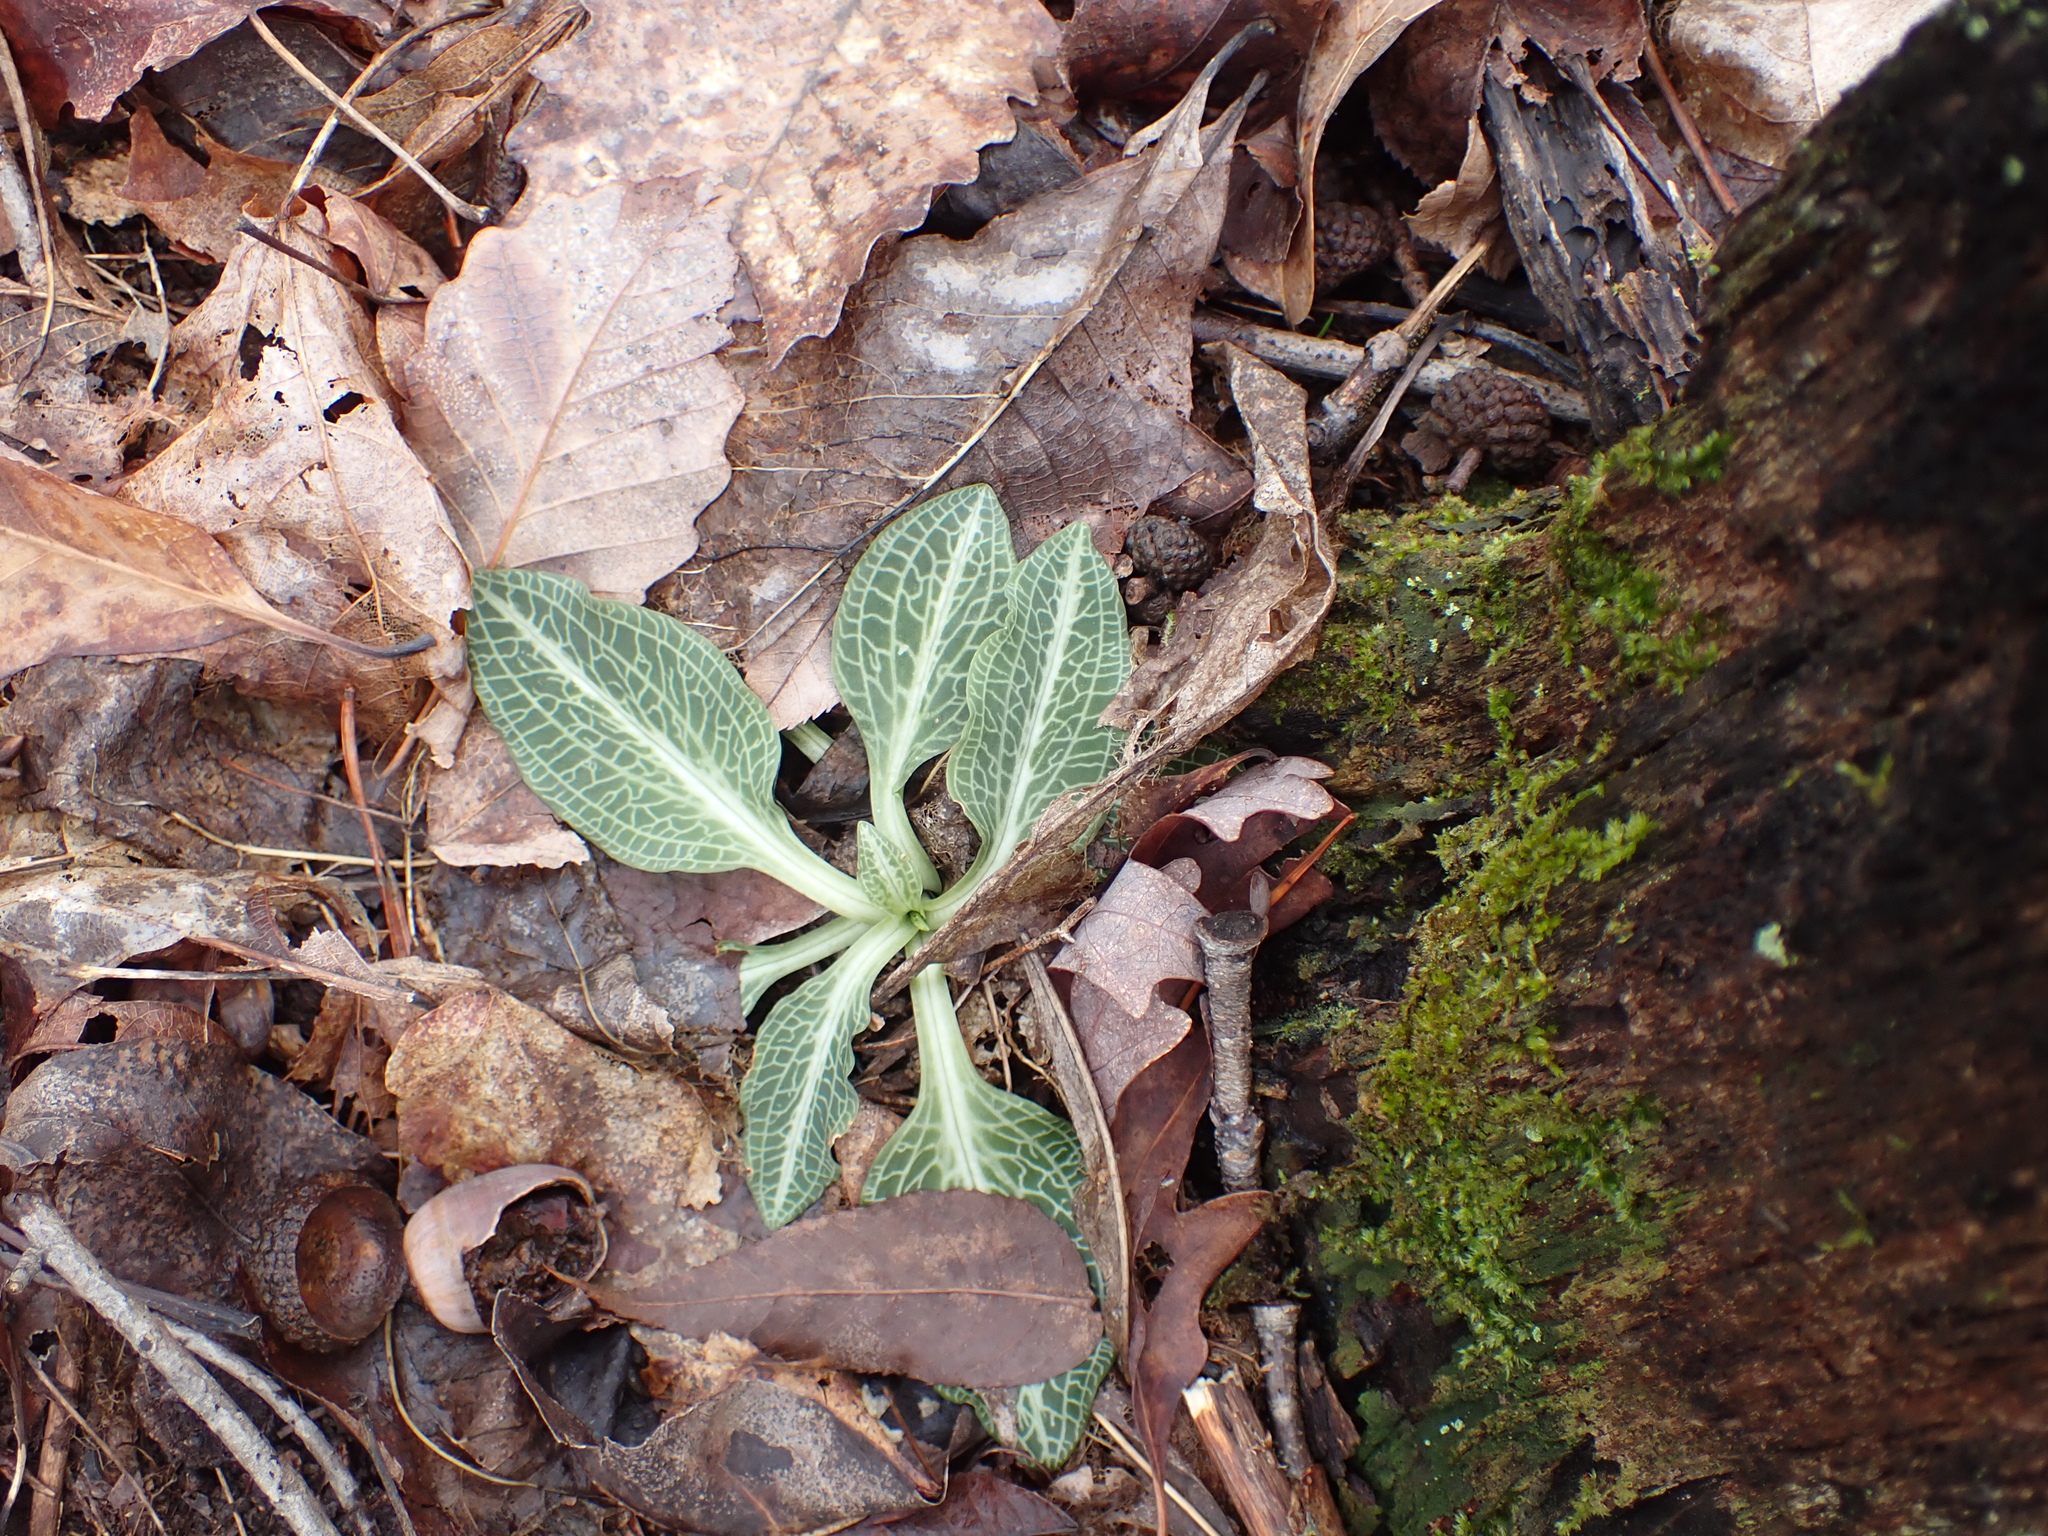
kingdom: Plantae
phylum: Tracheophyta
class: Liliopsida
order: Asparagales
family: Orchidaceae
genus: Goodyera
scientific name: Goodyera pubescens
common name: Downy rattlesnake-plantain
